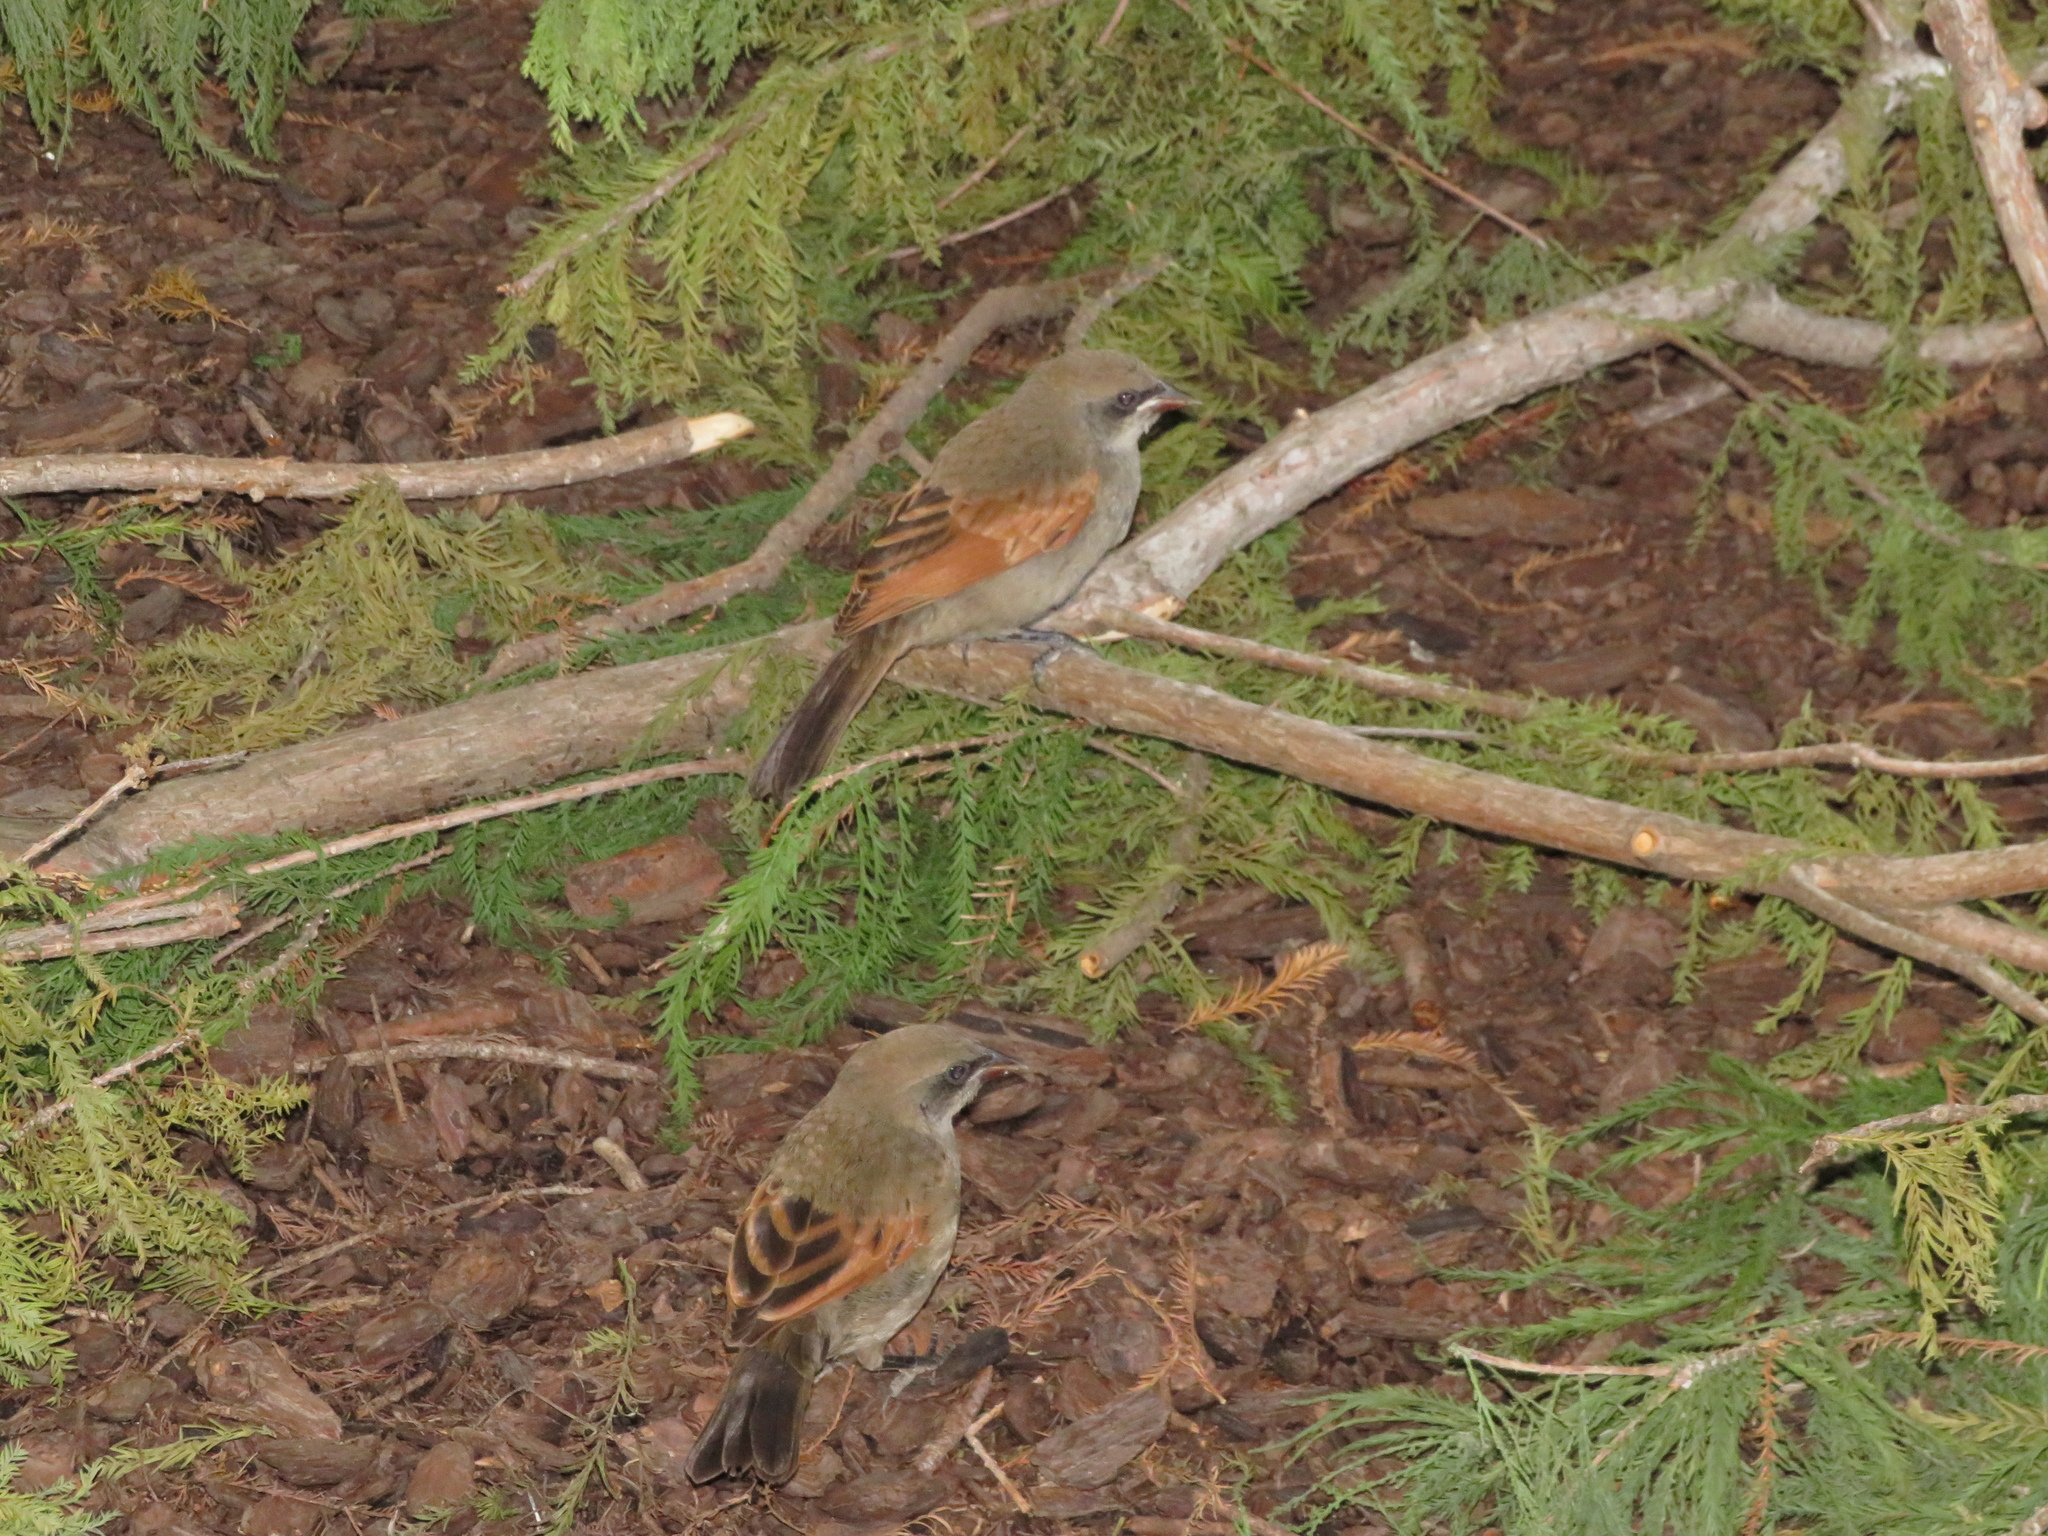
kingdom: Animalia
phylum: Chordata
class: Aves
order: Passeriformes
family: Icteridae
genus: Agelaioides
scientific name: Agelaioides badius
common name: Baywing
